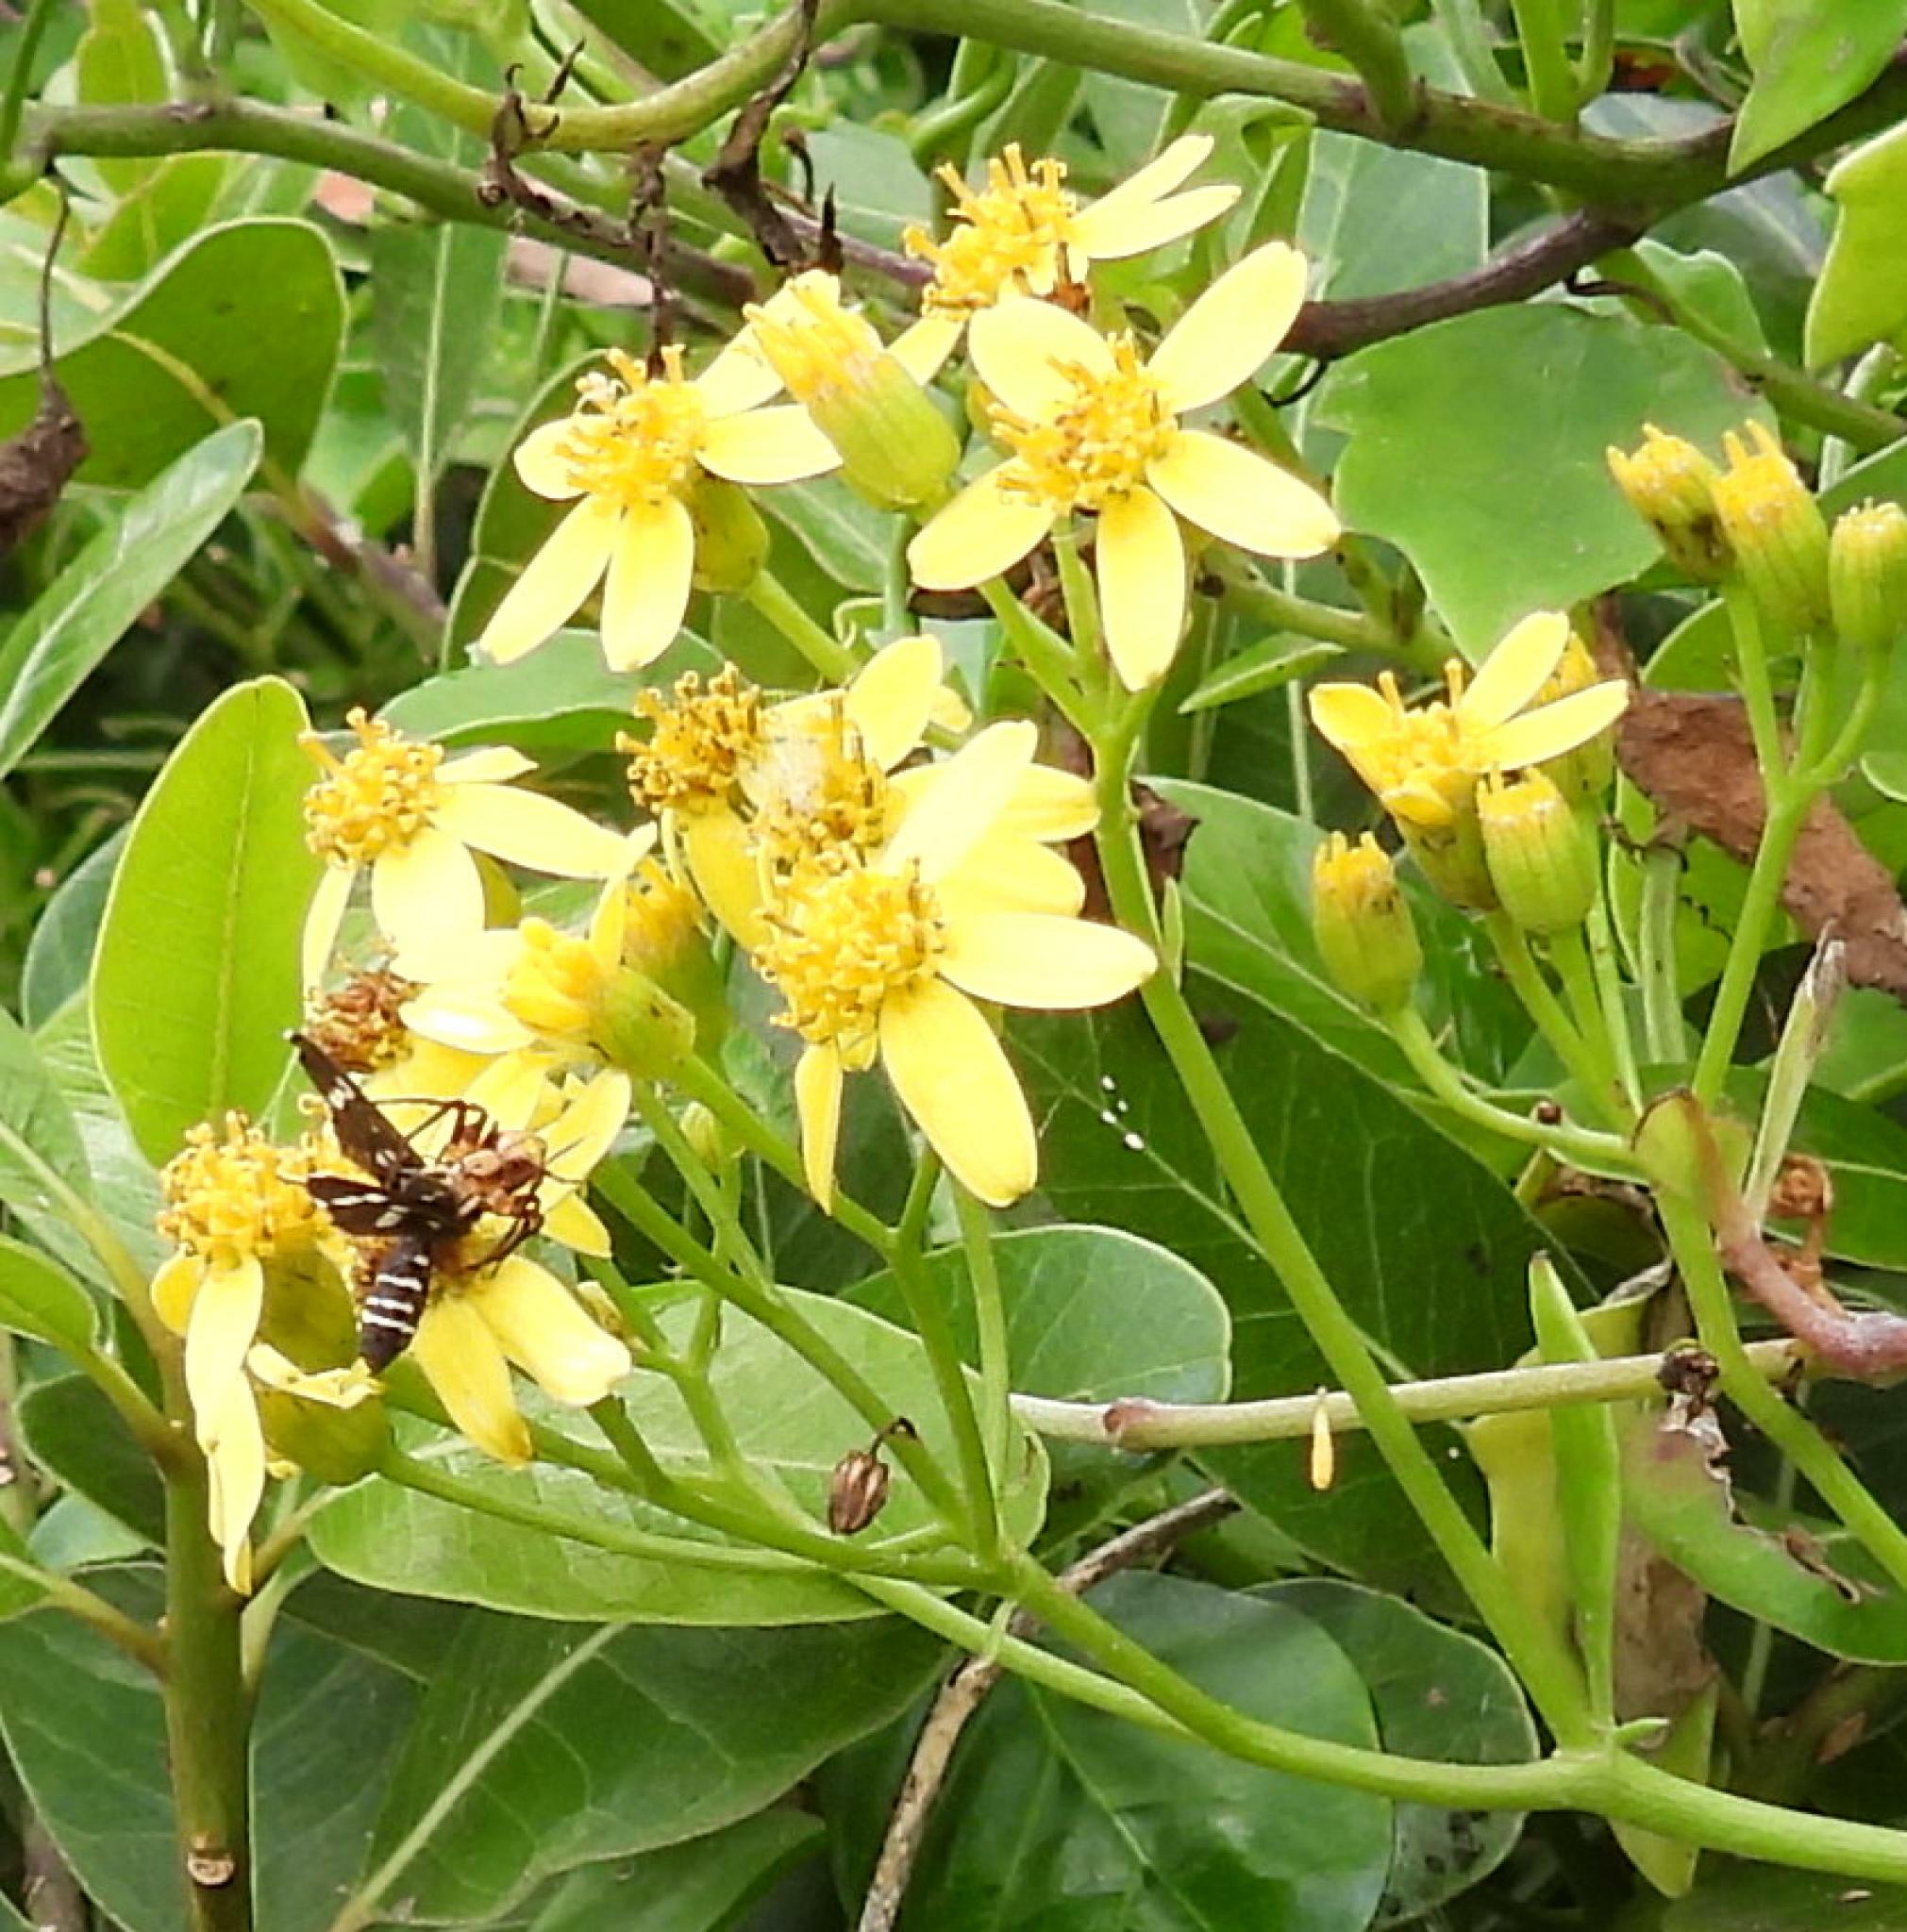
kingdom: Plantae
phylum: Tracheophyta
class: Magnoliopsida
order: Asterales
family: Asteraceae
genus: Senecio
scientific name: Senecio angulatus
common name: Climbing groundsel
